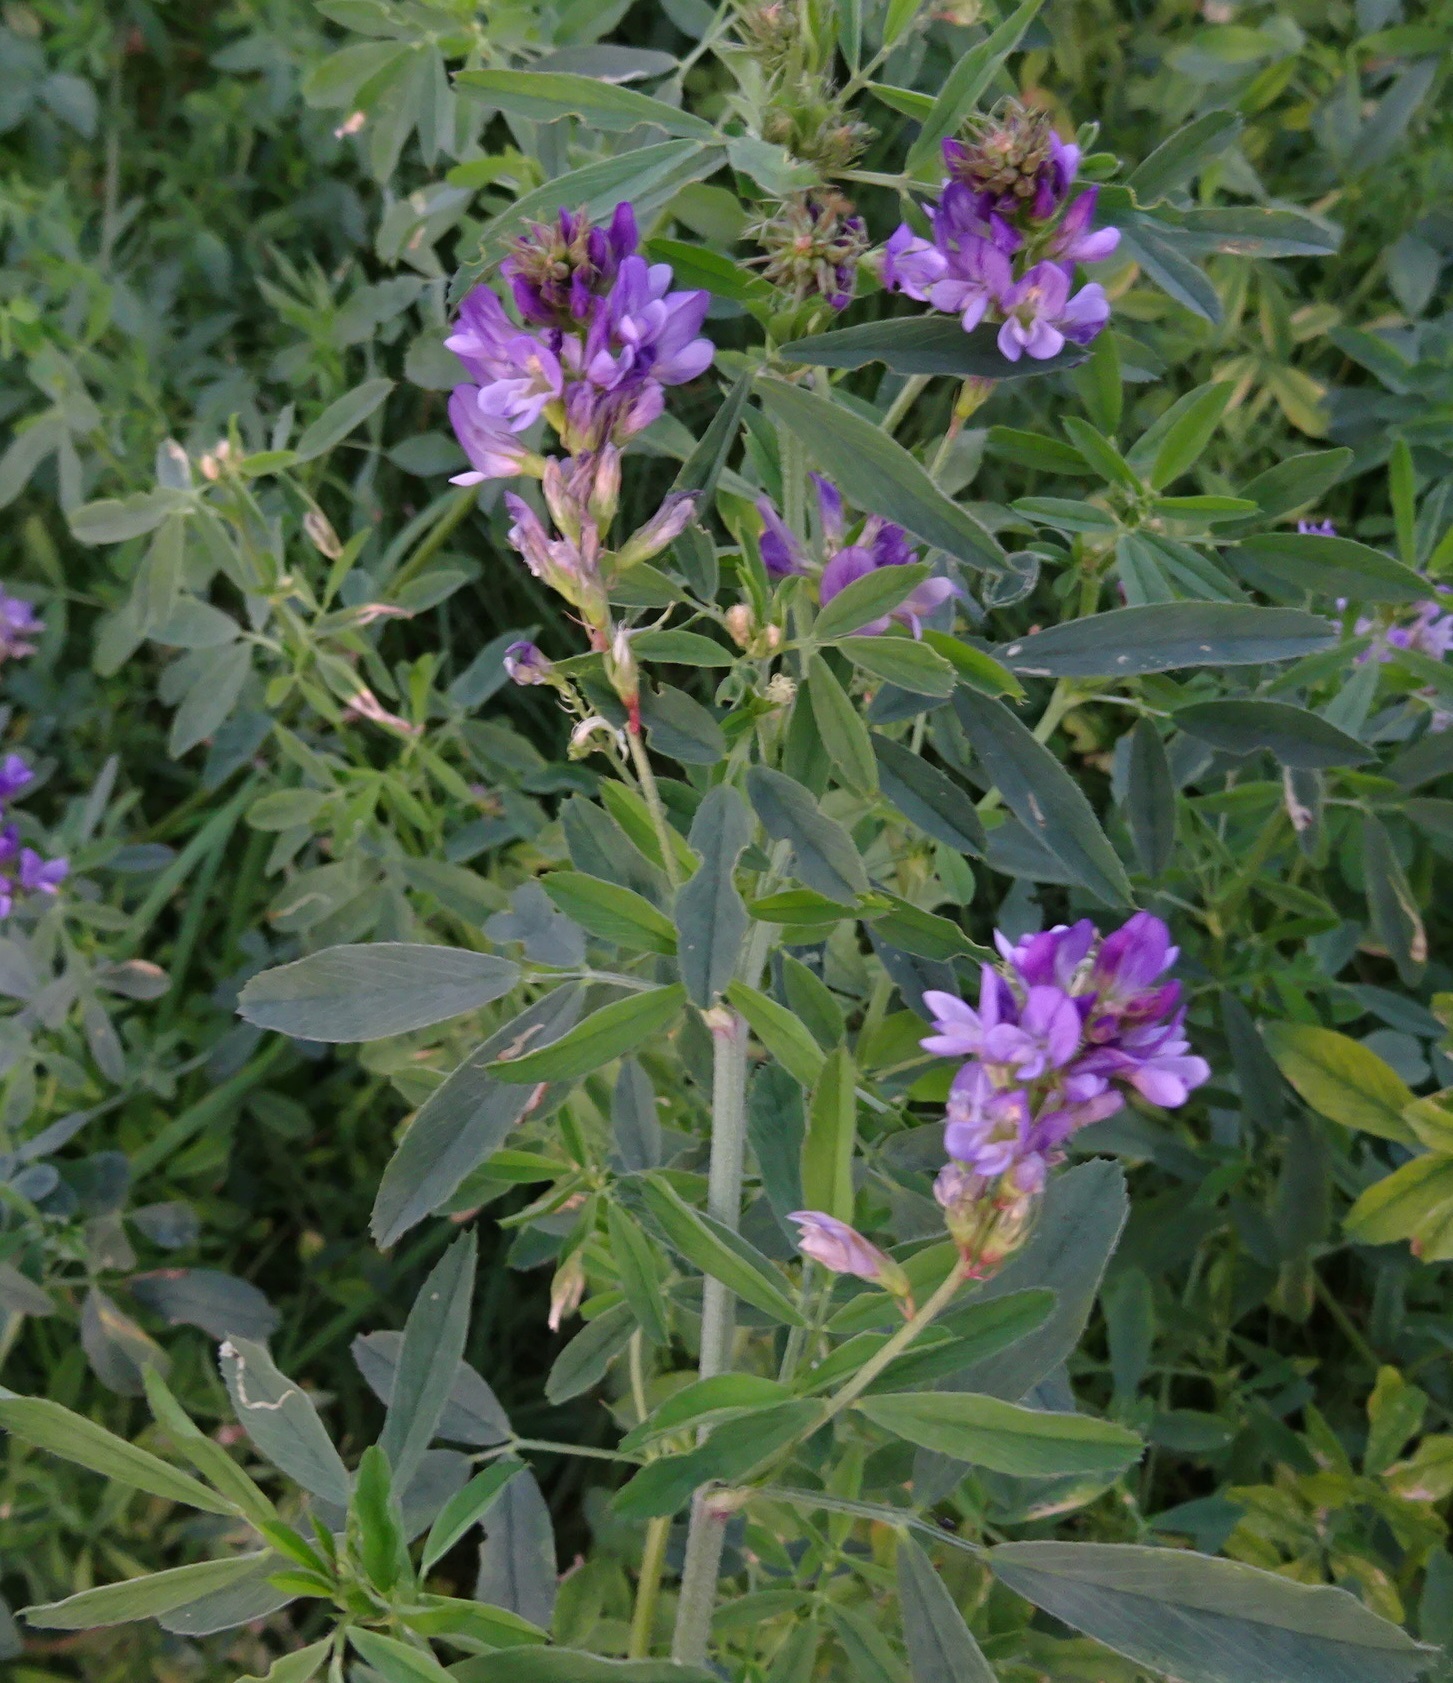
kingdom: Plantae
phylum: Tracheophyta
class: Magnoliopsida
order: Fabales
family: Fabaceae
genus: Medicago
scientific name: Medicago sativa
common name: Alfalfa
